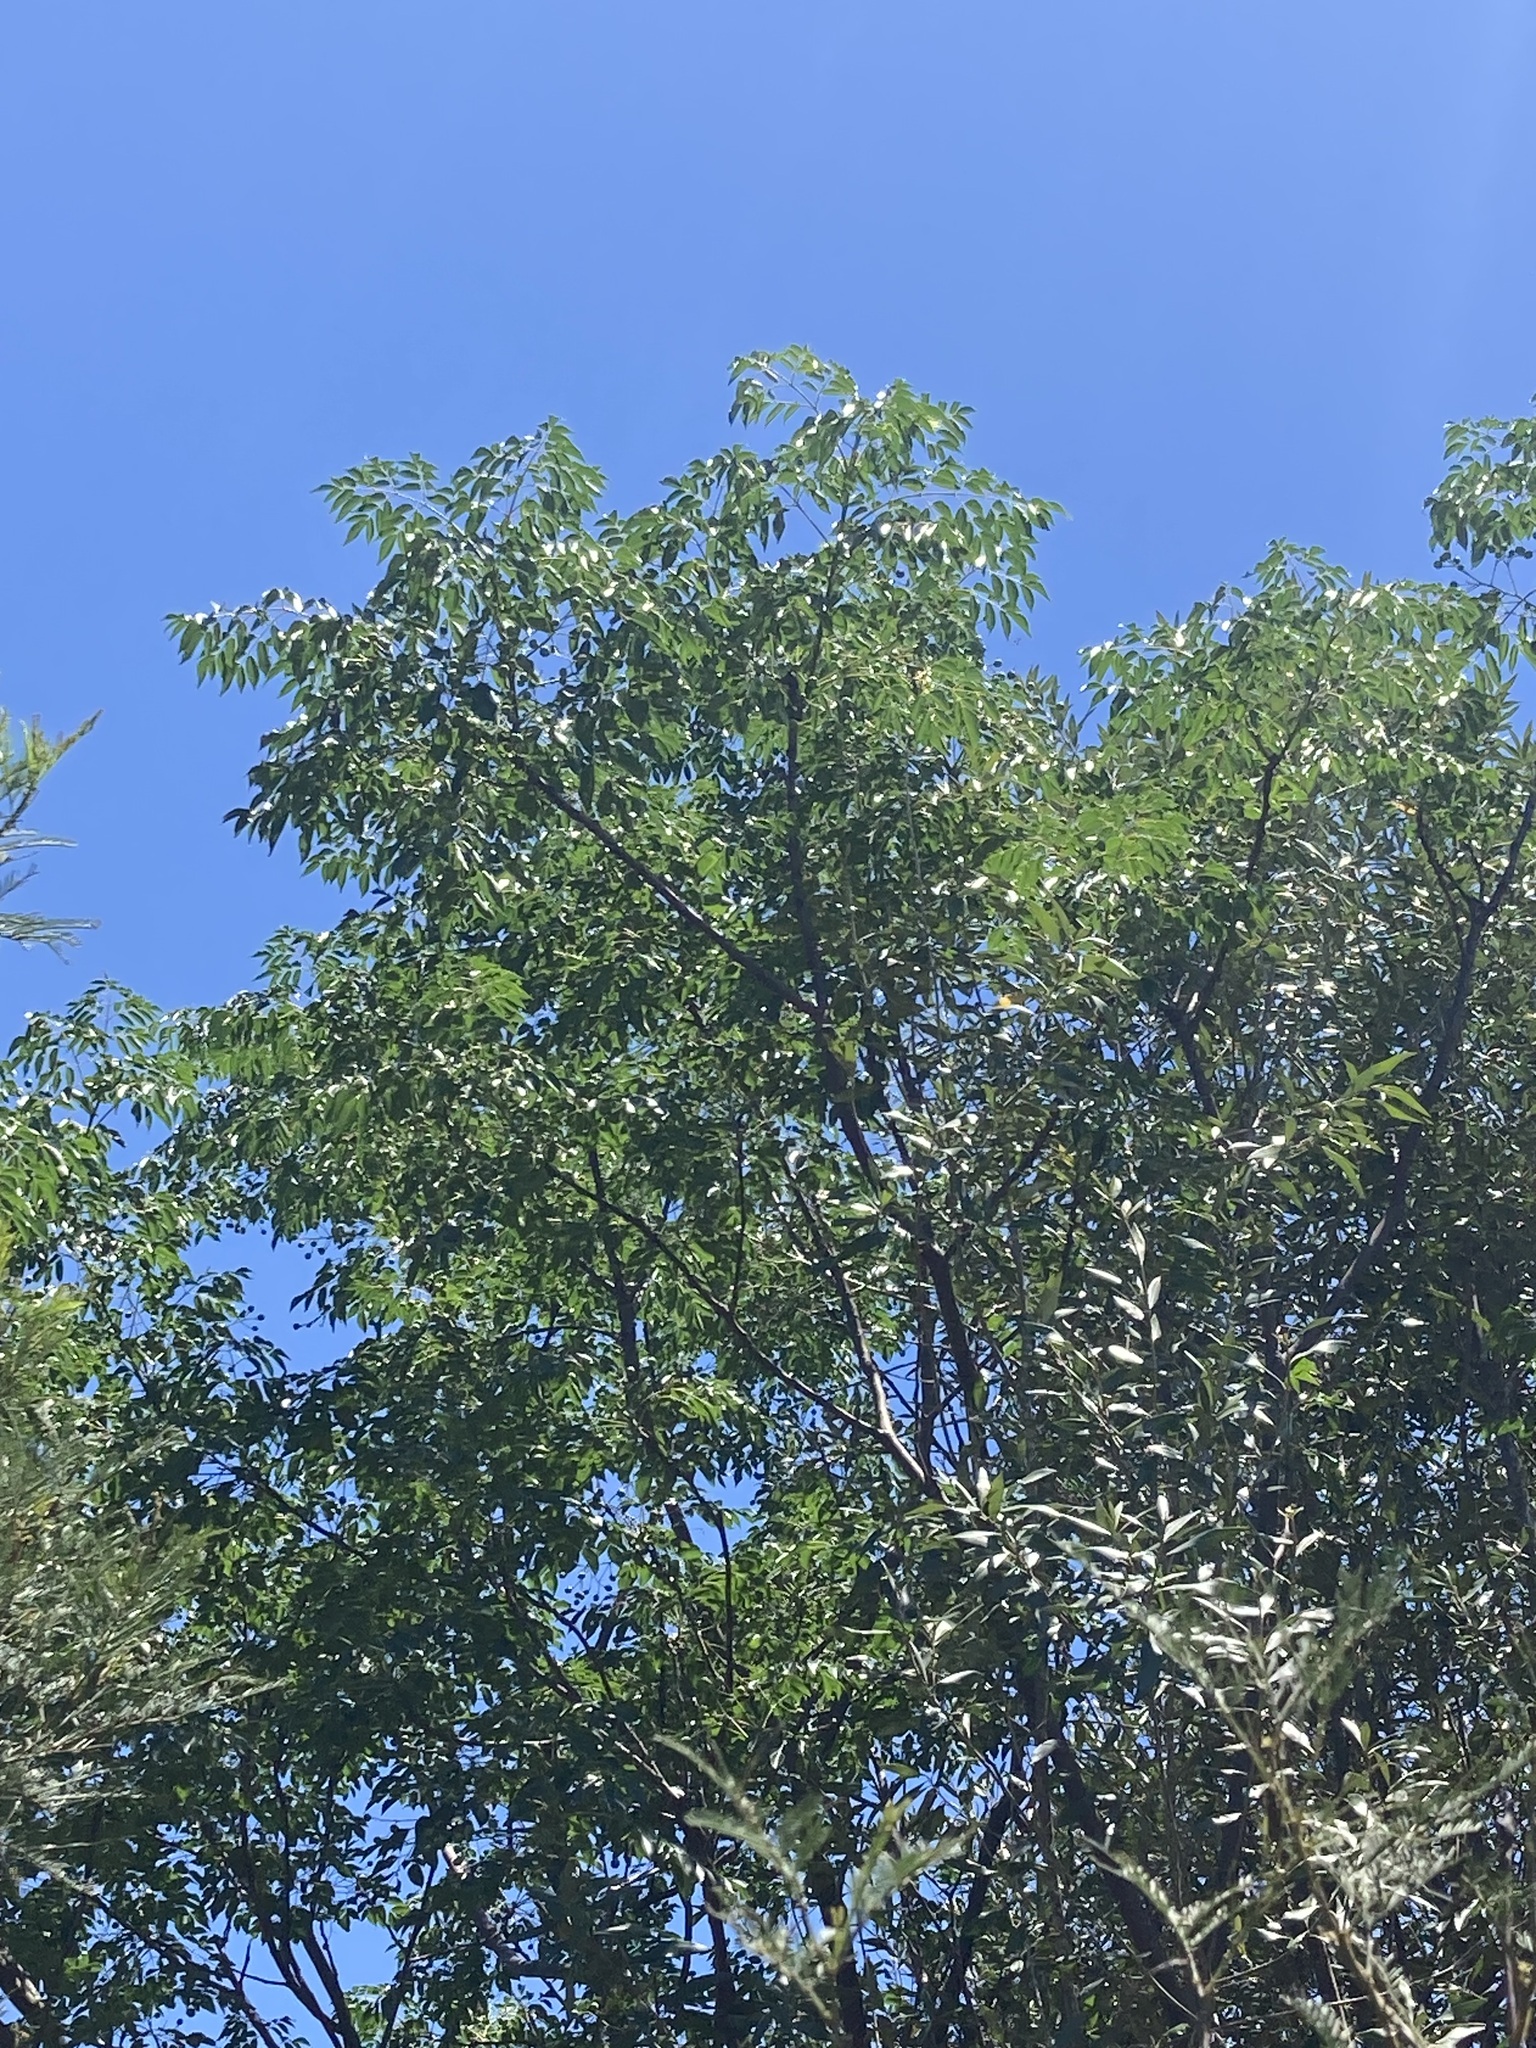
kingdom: Plantae
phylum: Tracheophyta
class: Magnoliopsida
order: Sapindales
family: Meliaceae
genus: Melia
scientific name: Melia azedarach
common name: Chinaberrytree
